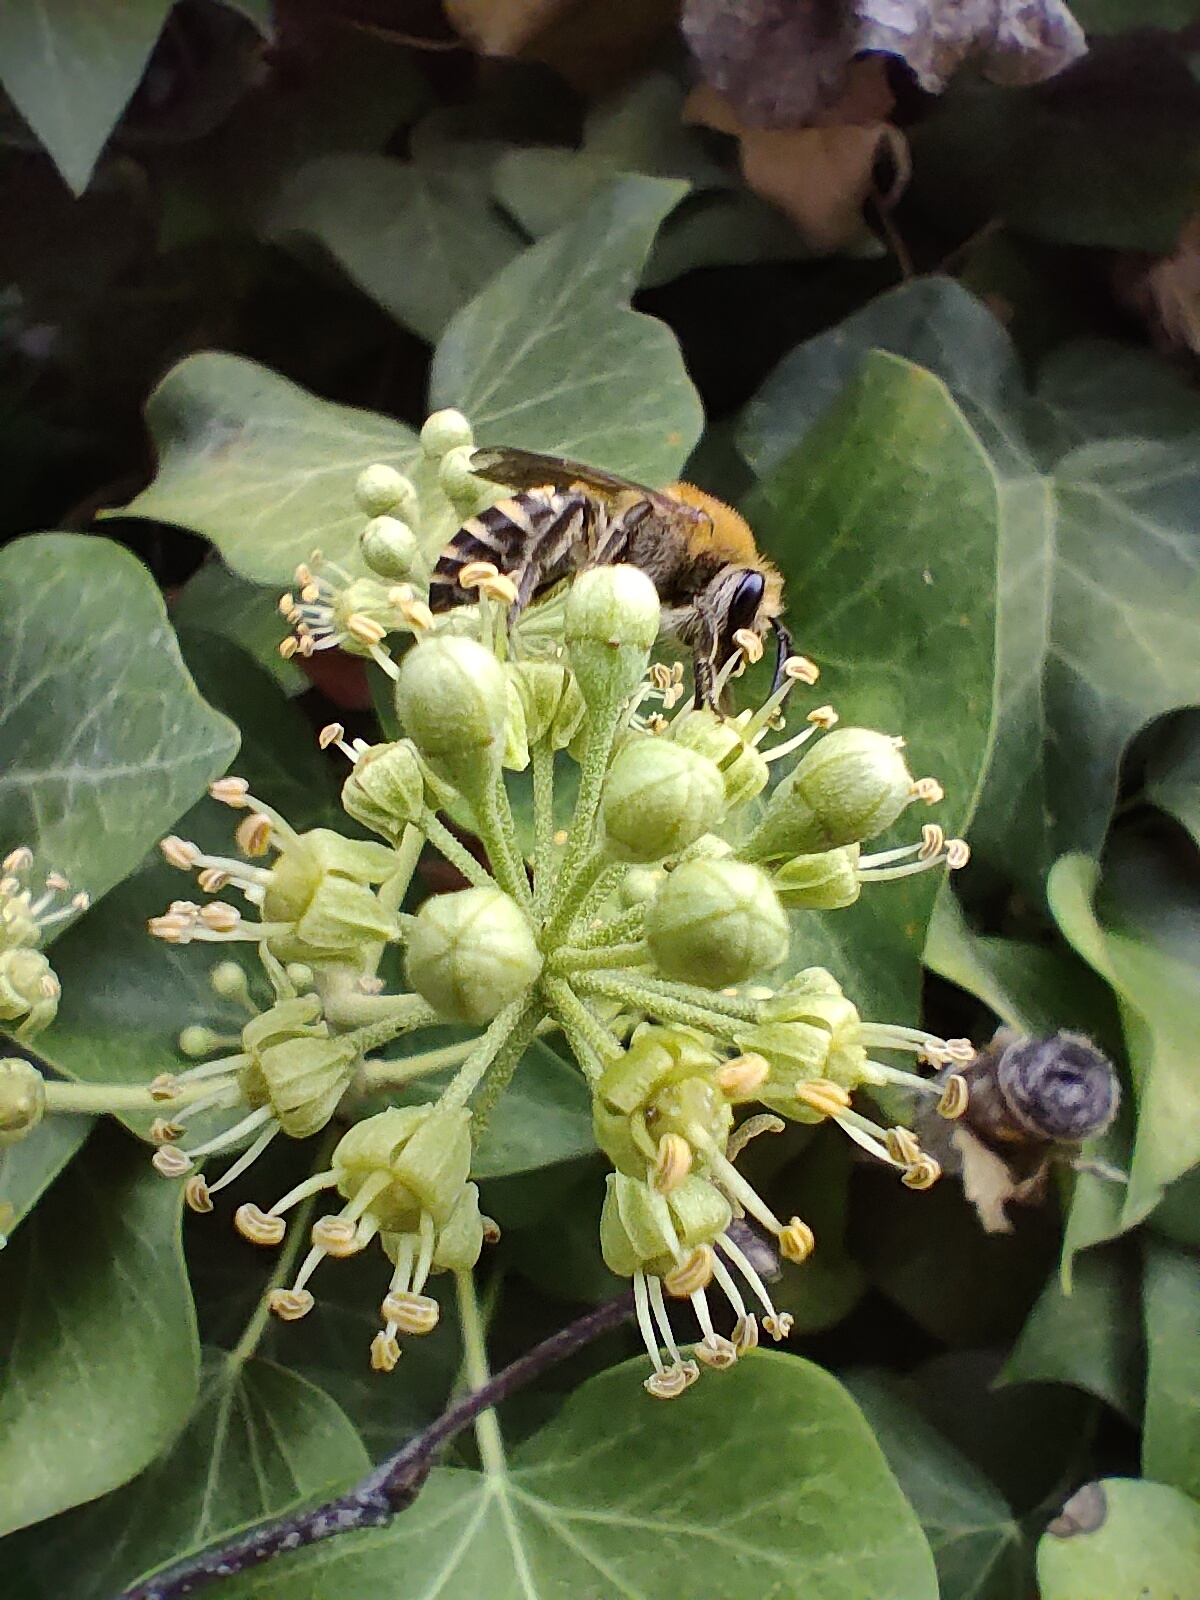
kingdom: Animalia
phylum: Arthropoda
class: Insecta
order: Hymenoptera
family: Colletidae
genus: Colletes
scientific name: Colletes hederae
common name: Ivy bee
